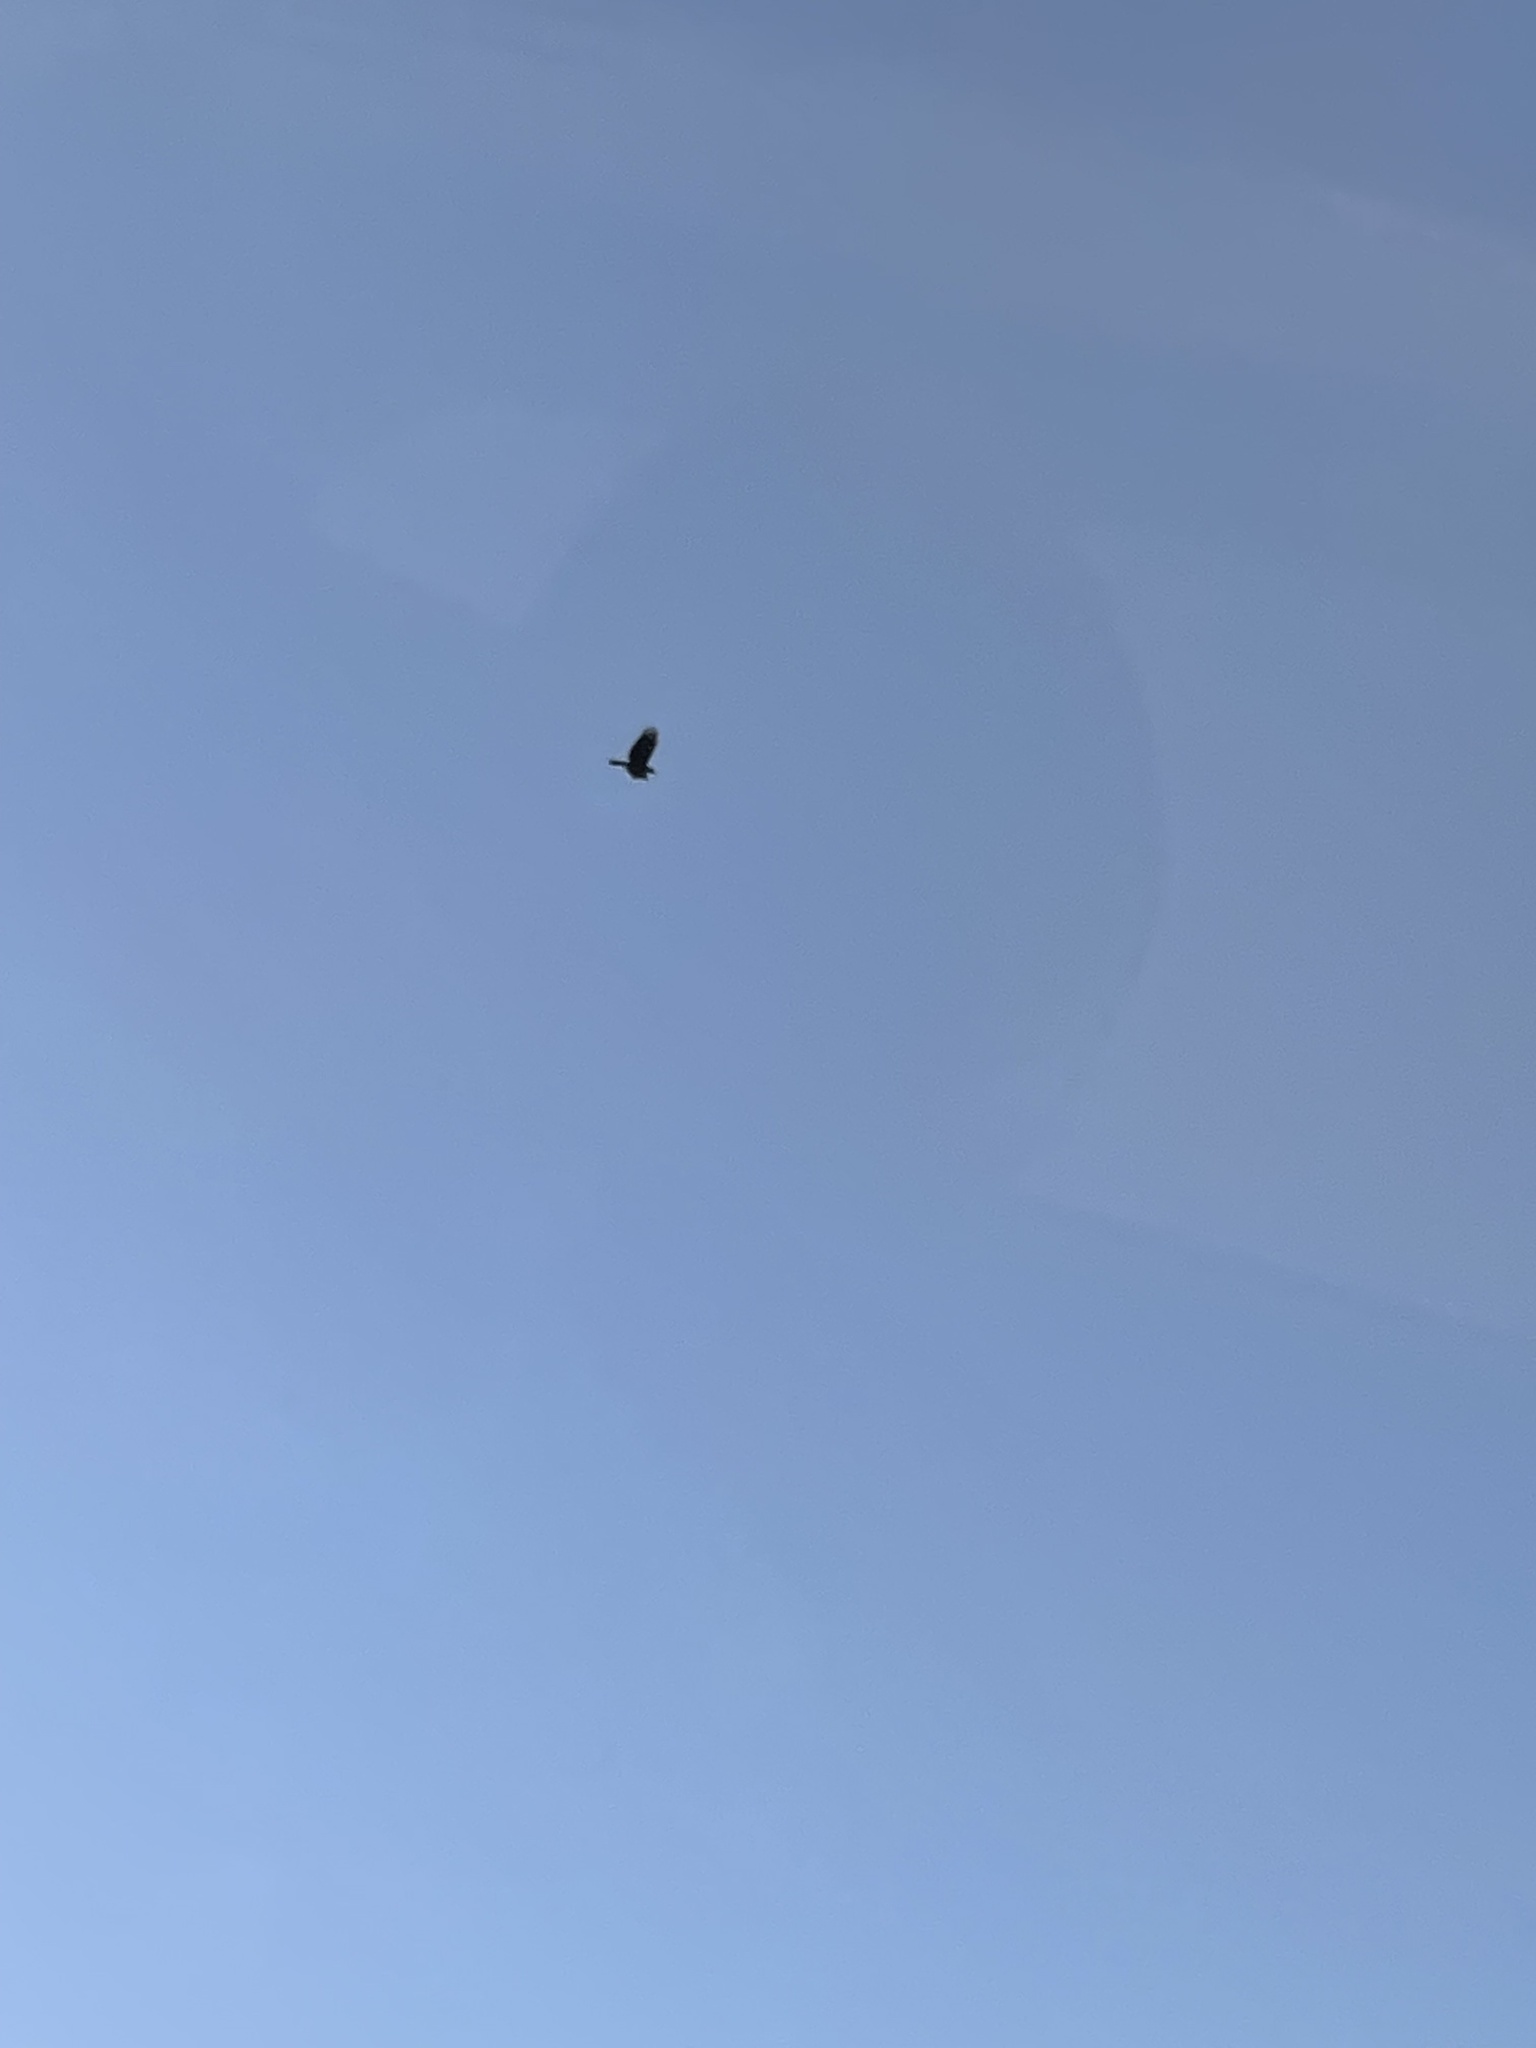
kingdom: Animalia
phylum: Chordata
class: Aves
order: Passeriformes
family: Corvidae
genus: Corvus
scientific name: Corvus brachyrhynchos
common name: American crow
